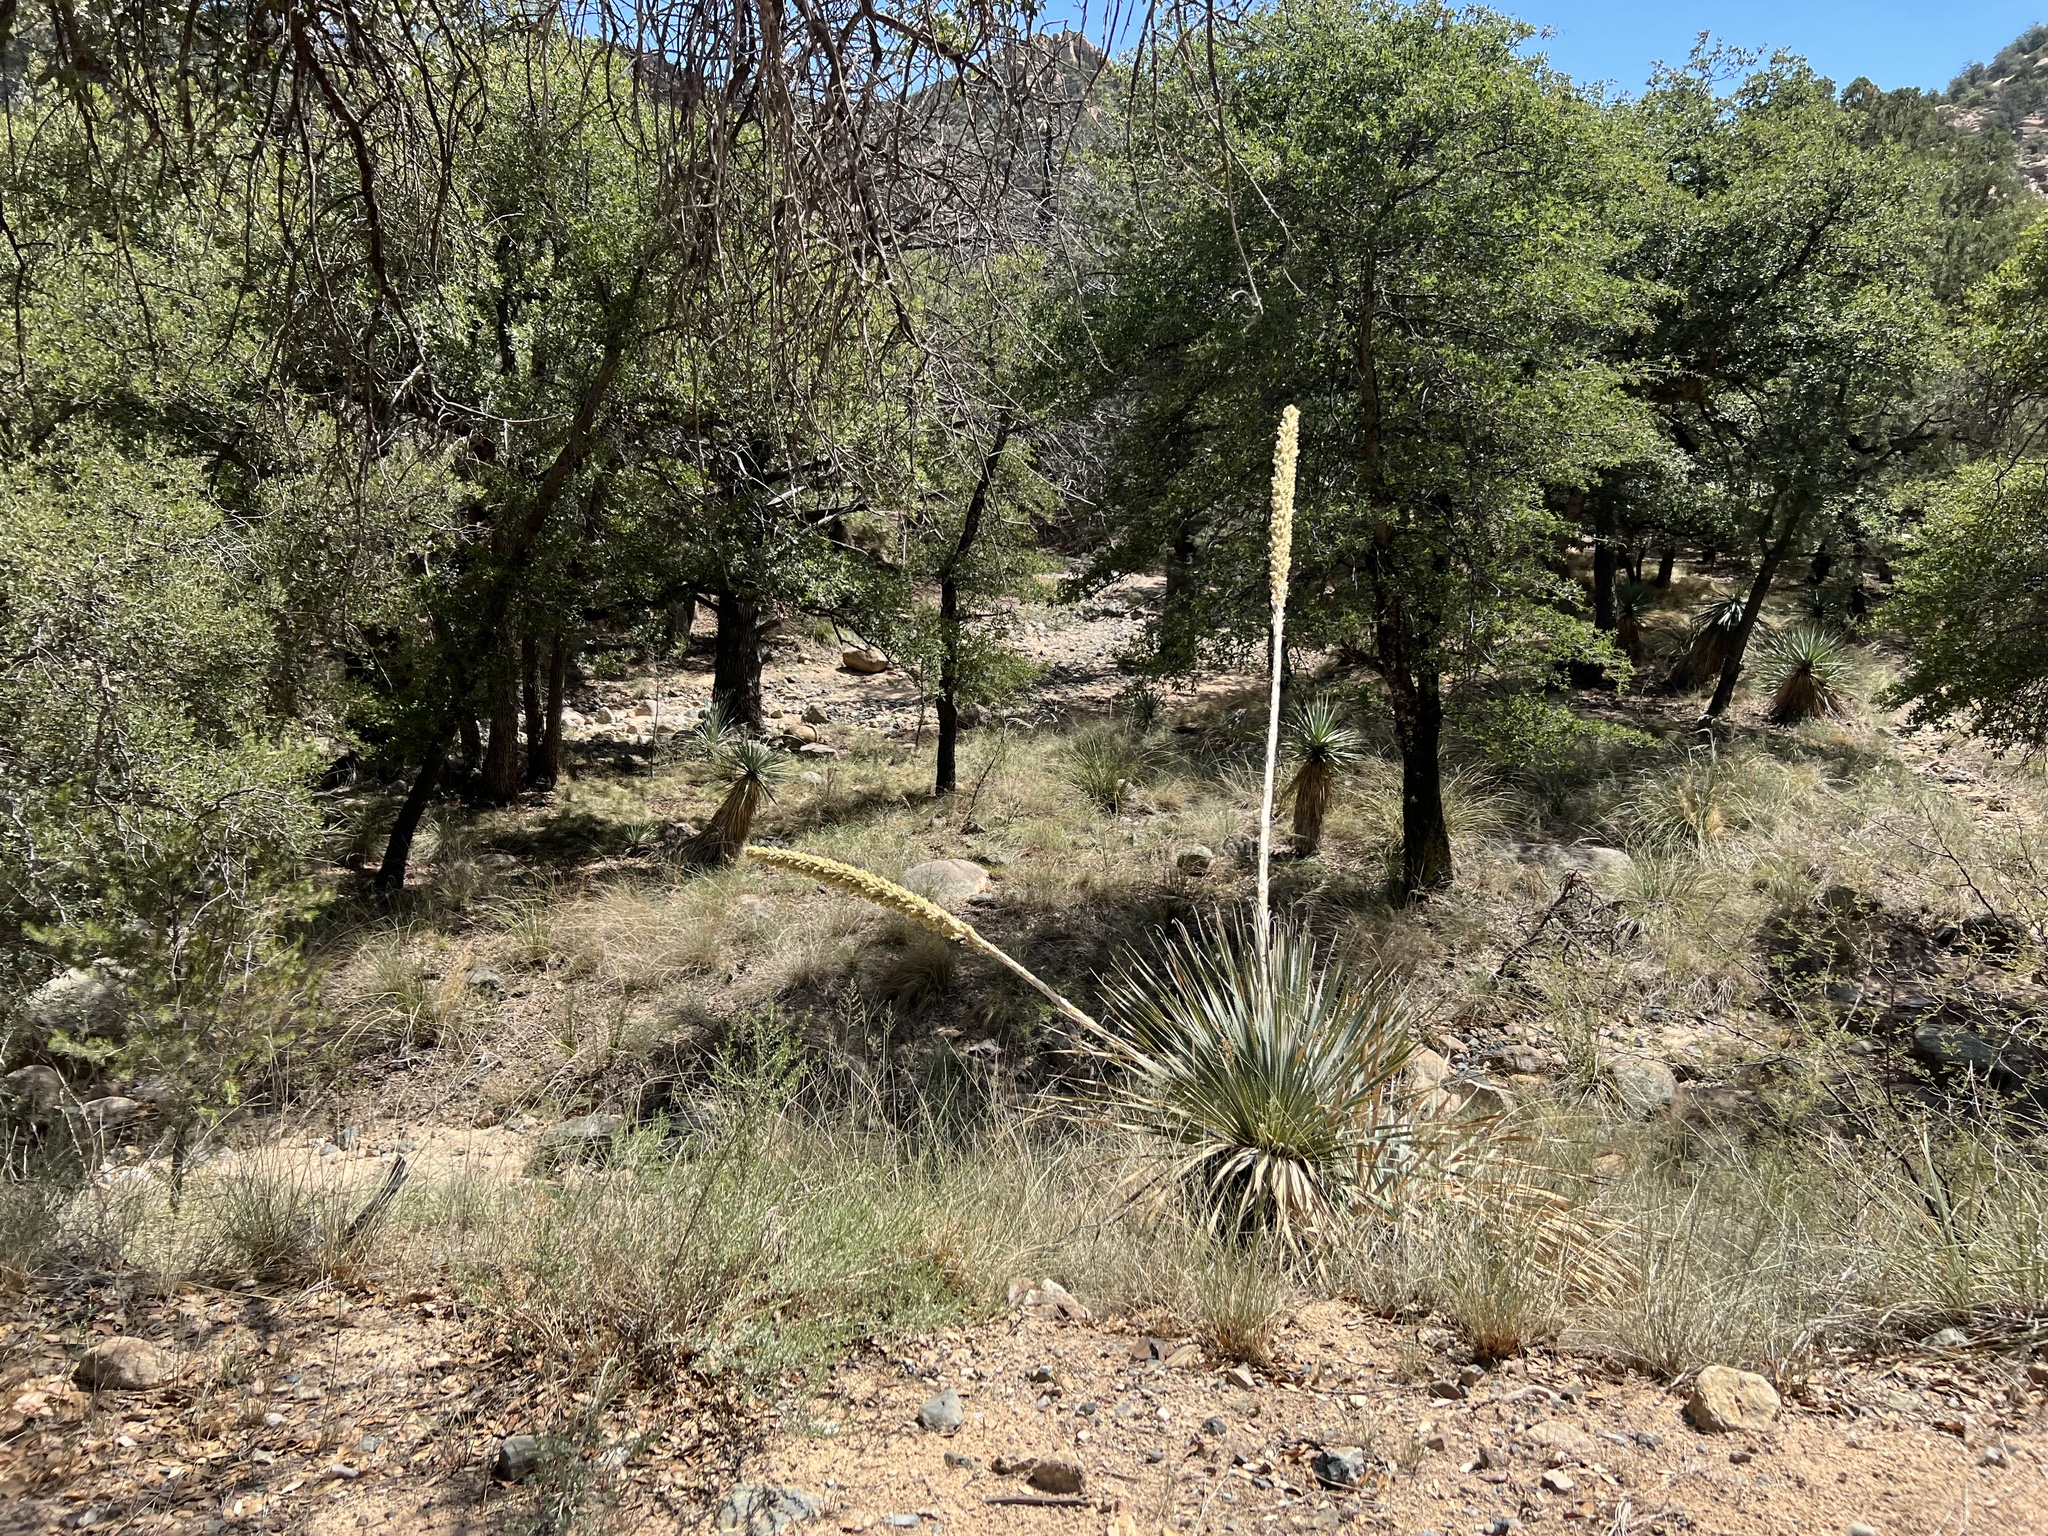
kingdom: Plantae
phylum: Tracheophyta
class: Liliopsida
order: Asparagales
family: Asparagaceae
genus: Dasylirion
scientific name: Dasylirion wheeleri
